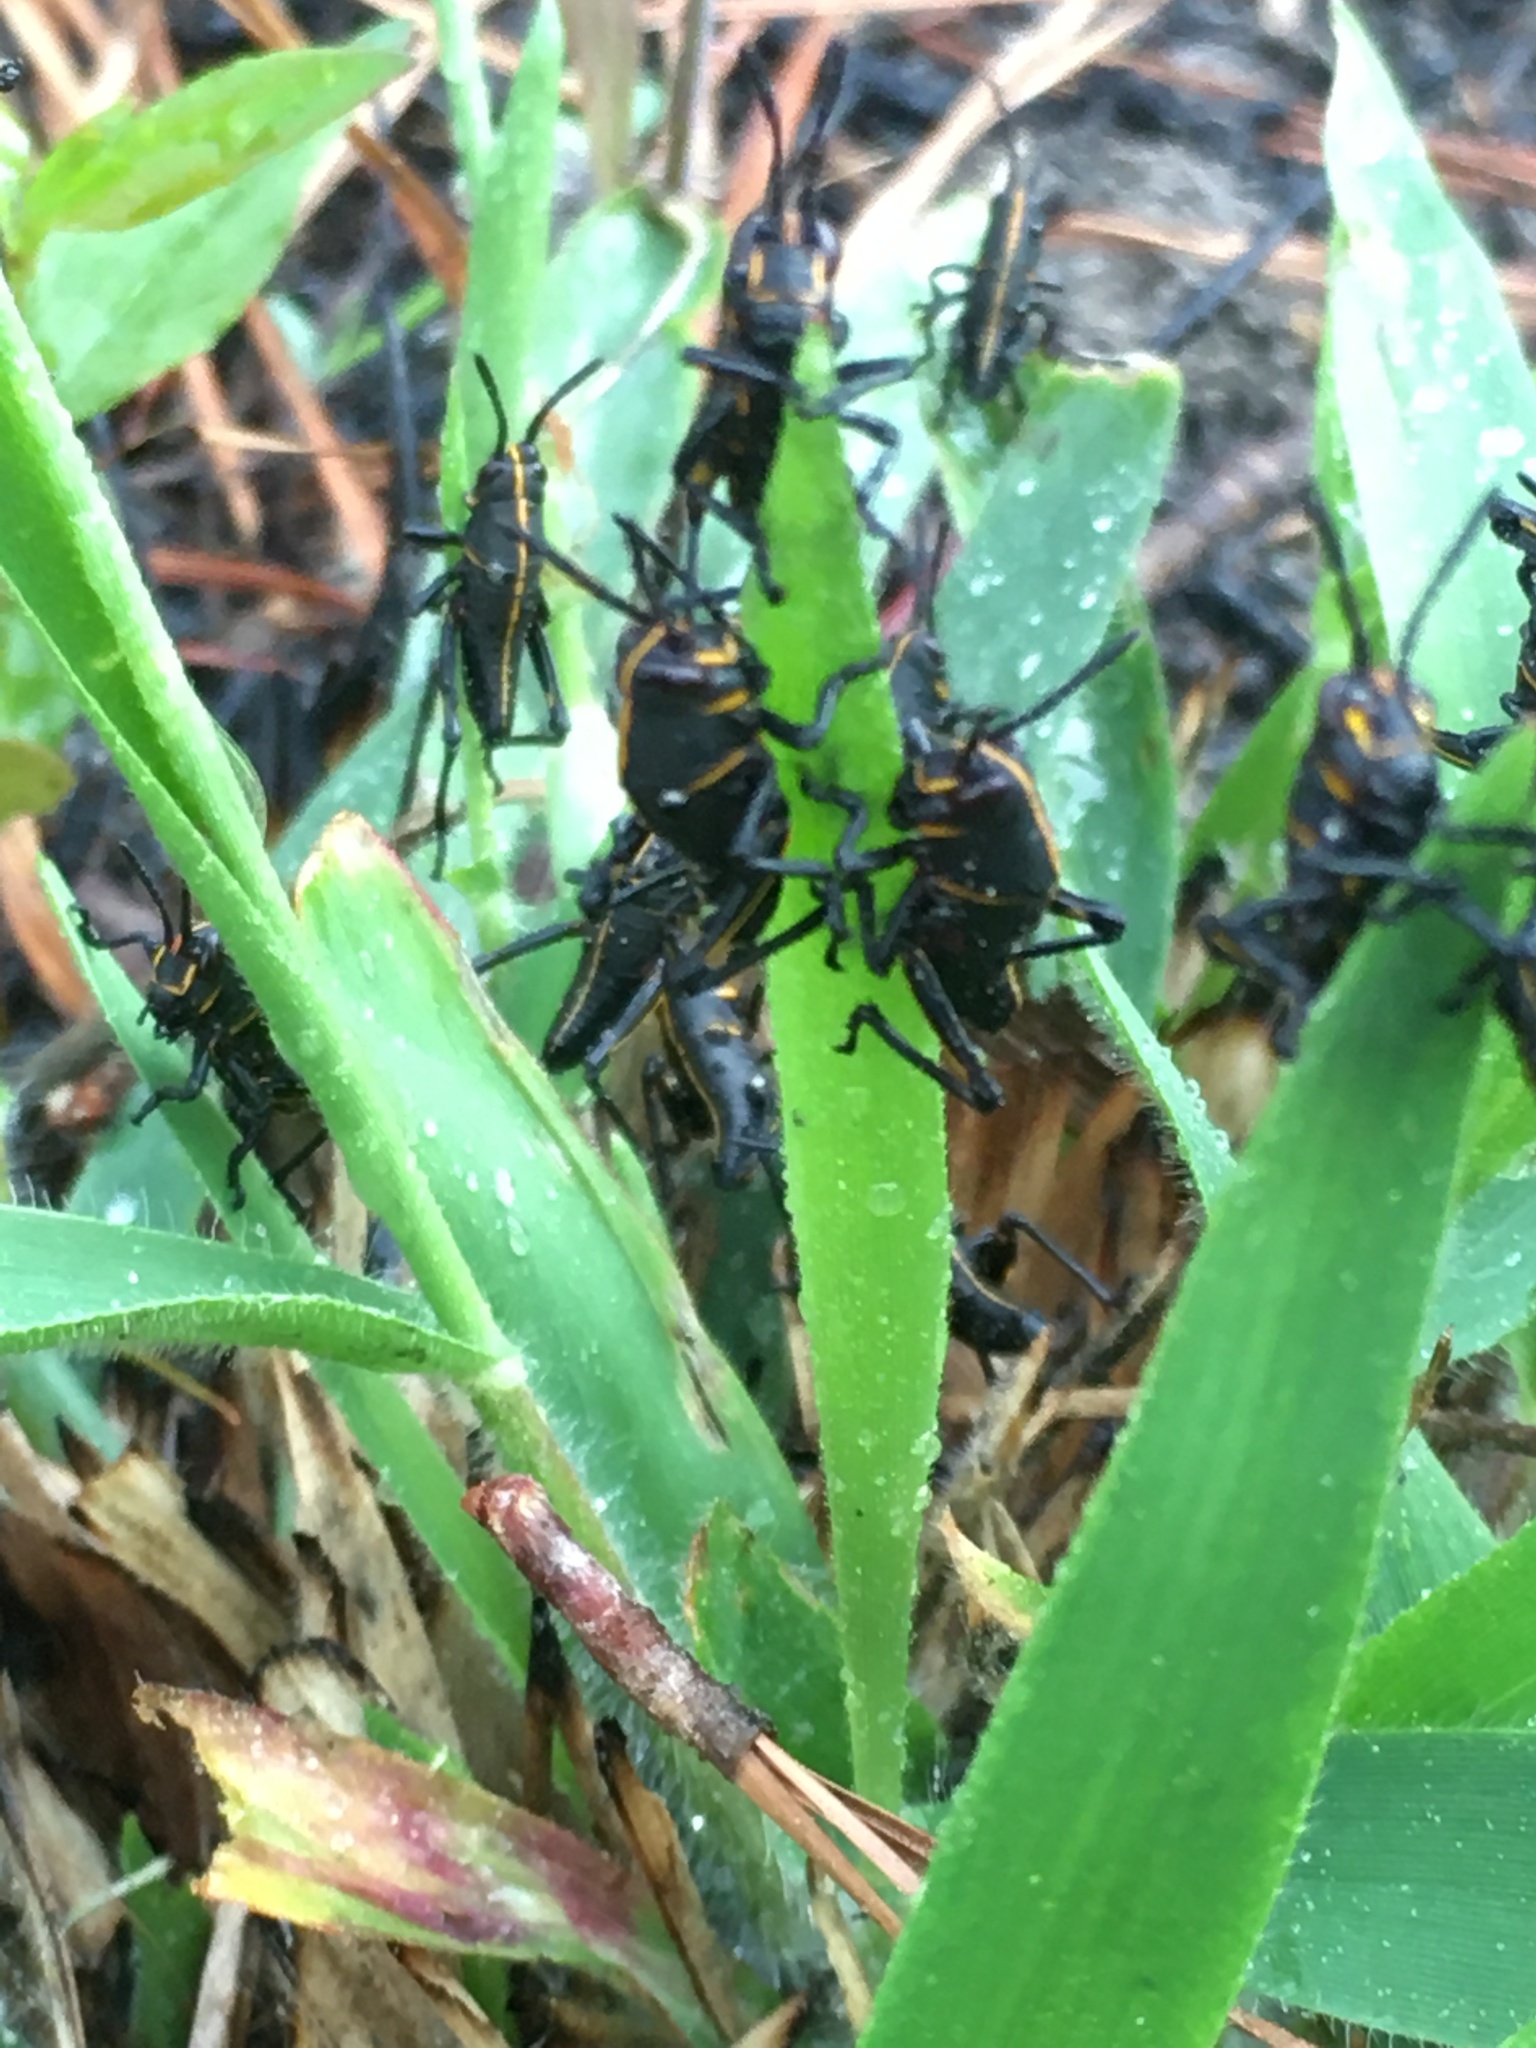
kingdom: Animalia
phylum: Arthropoda
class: Insecta
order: Orthoptera
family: Romaleidae
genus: Romalea
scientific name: Romalea microptera
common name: Eastern lubber grasshopper
